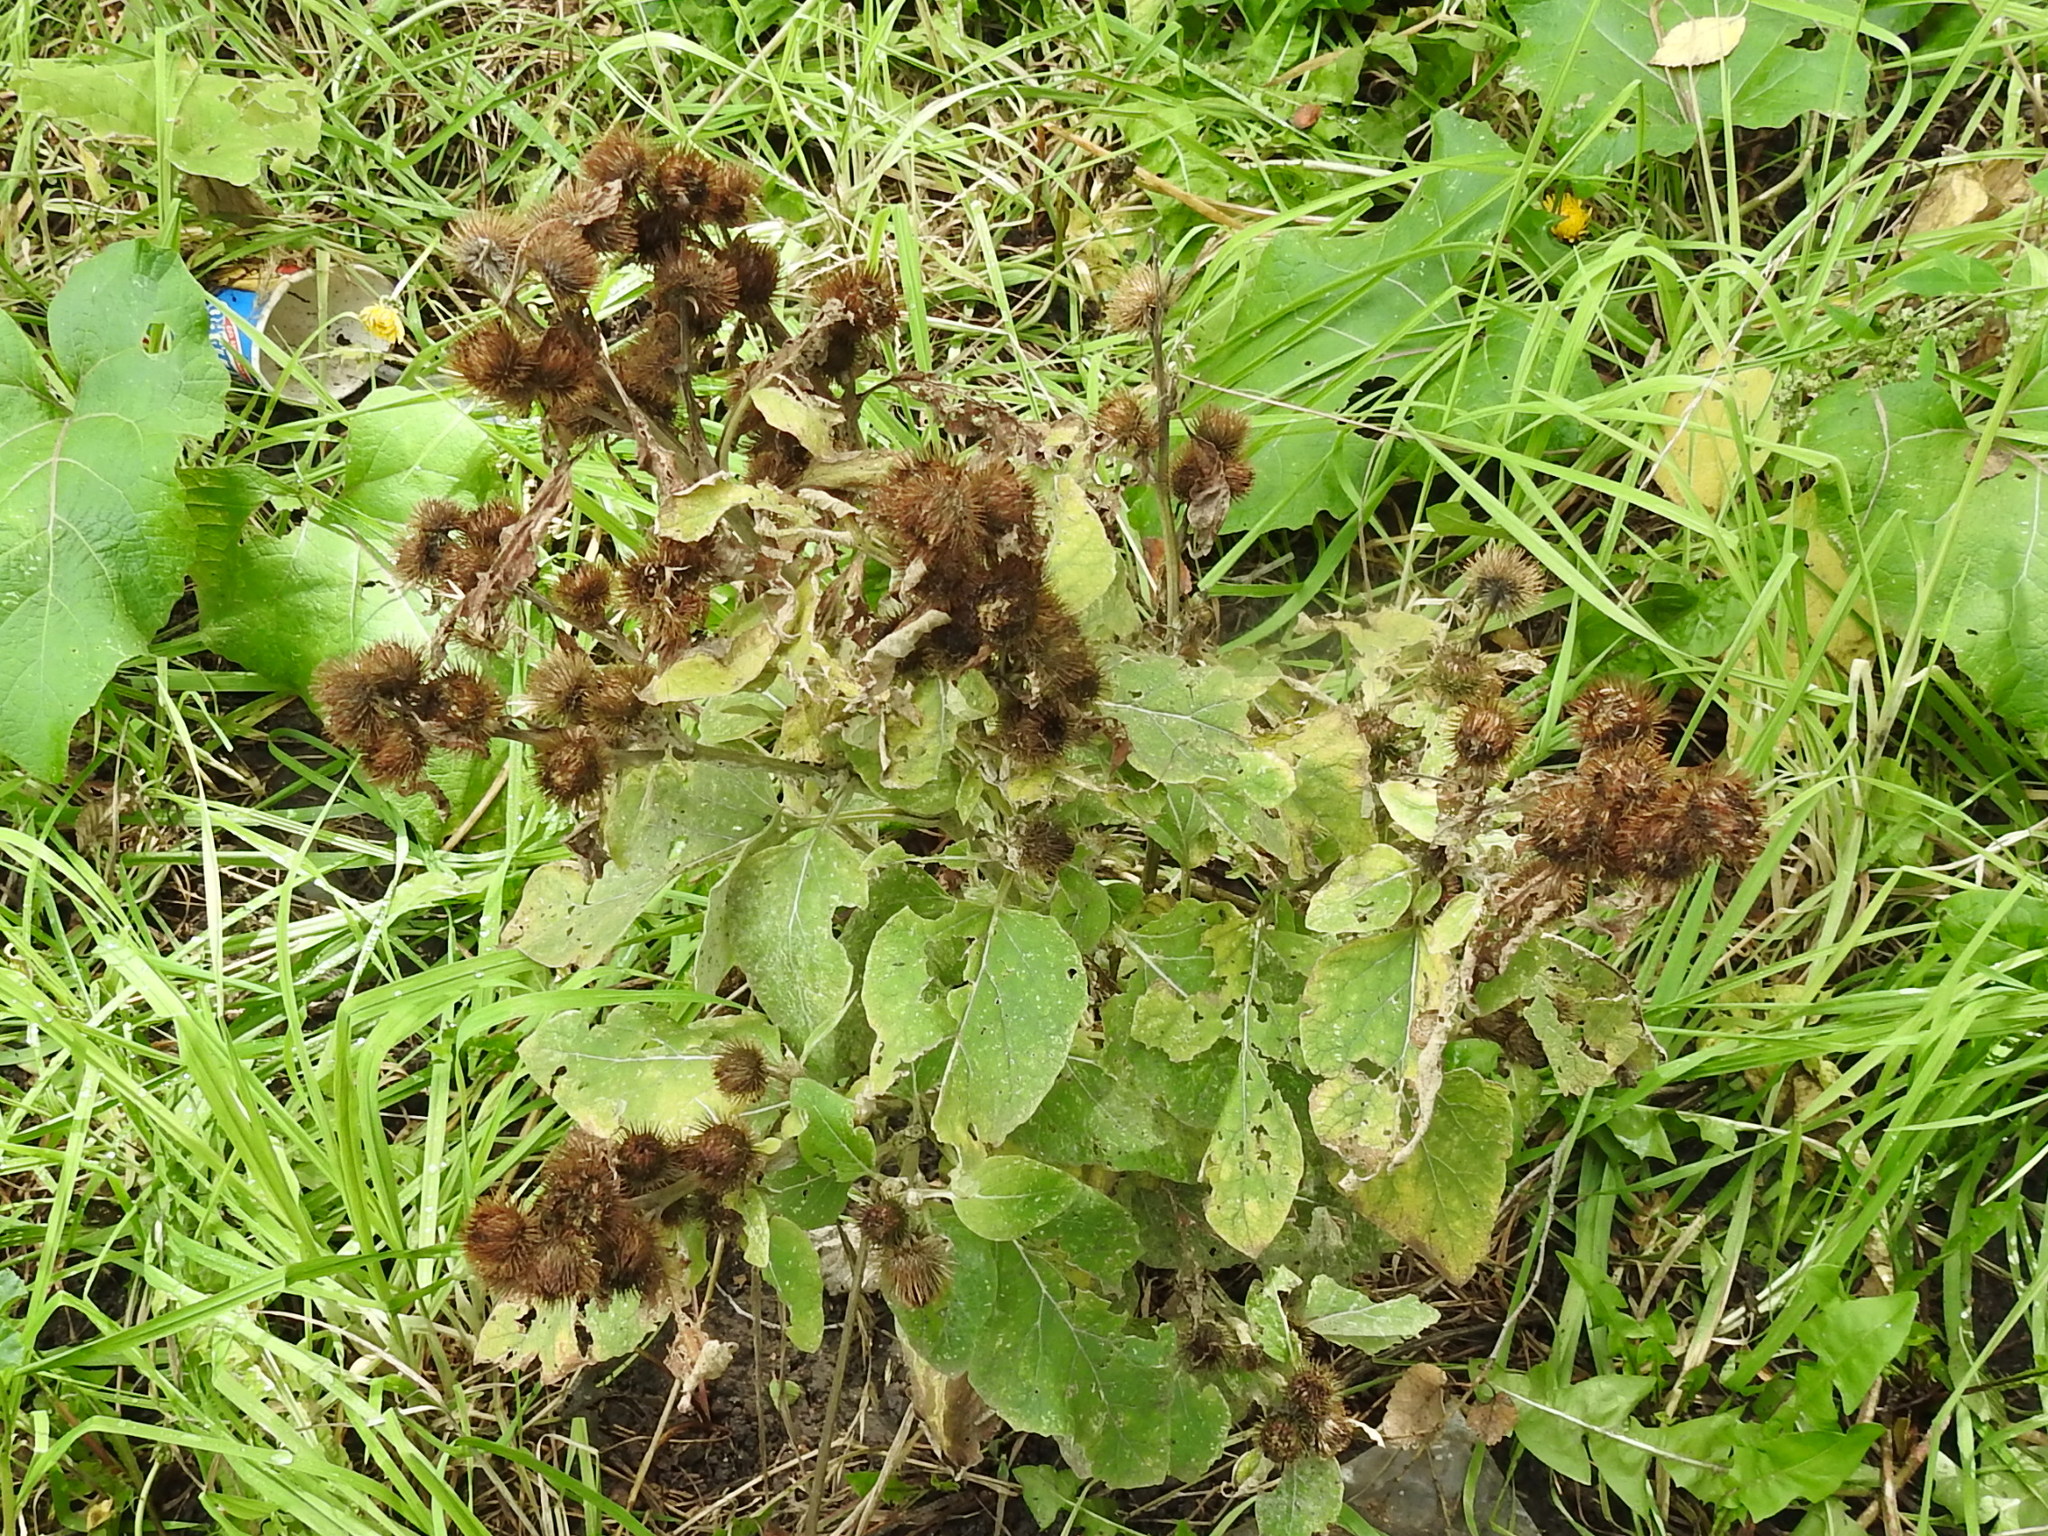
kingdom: Plantae
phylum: Tracheophyta
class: Magnoliopsida
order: Asterales
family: Asteraceae
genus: Arctium
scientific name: Arctium minus
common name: Lesser burdock
